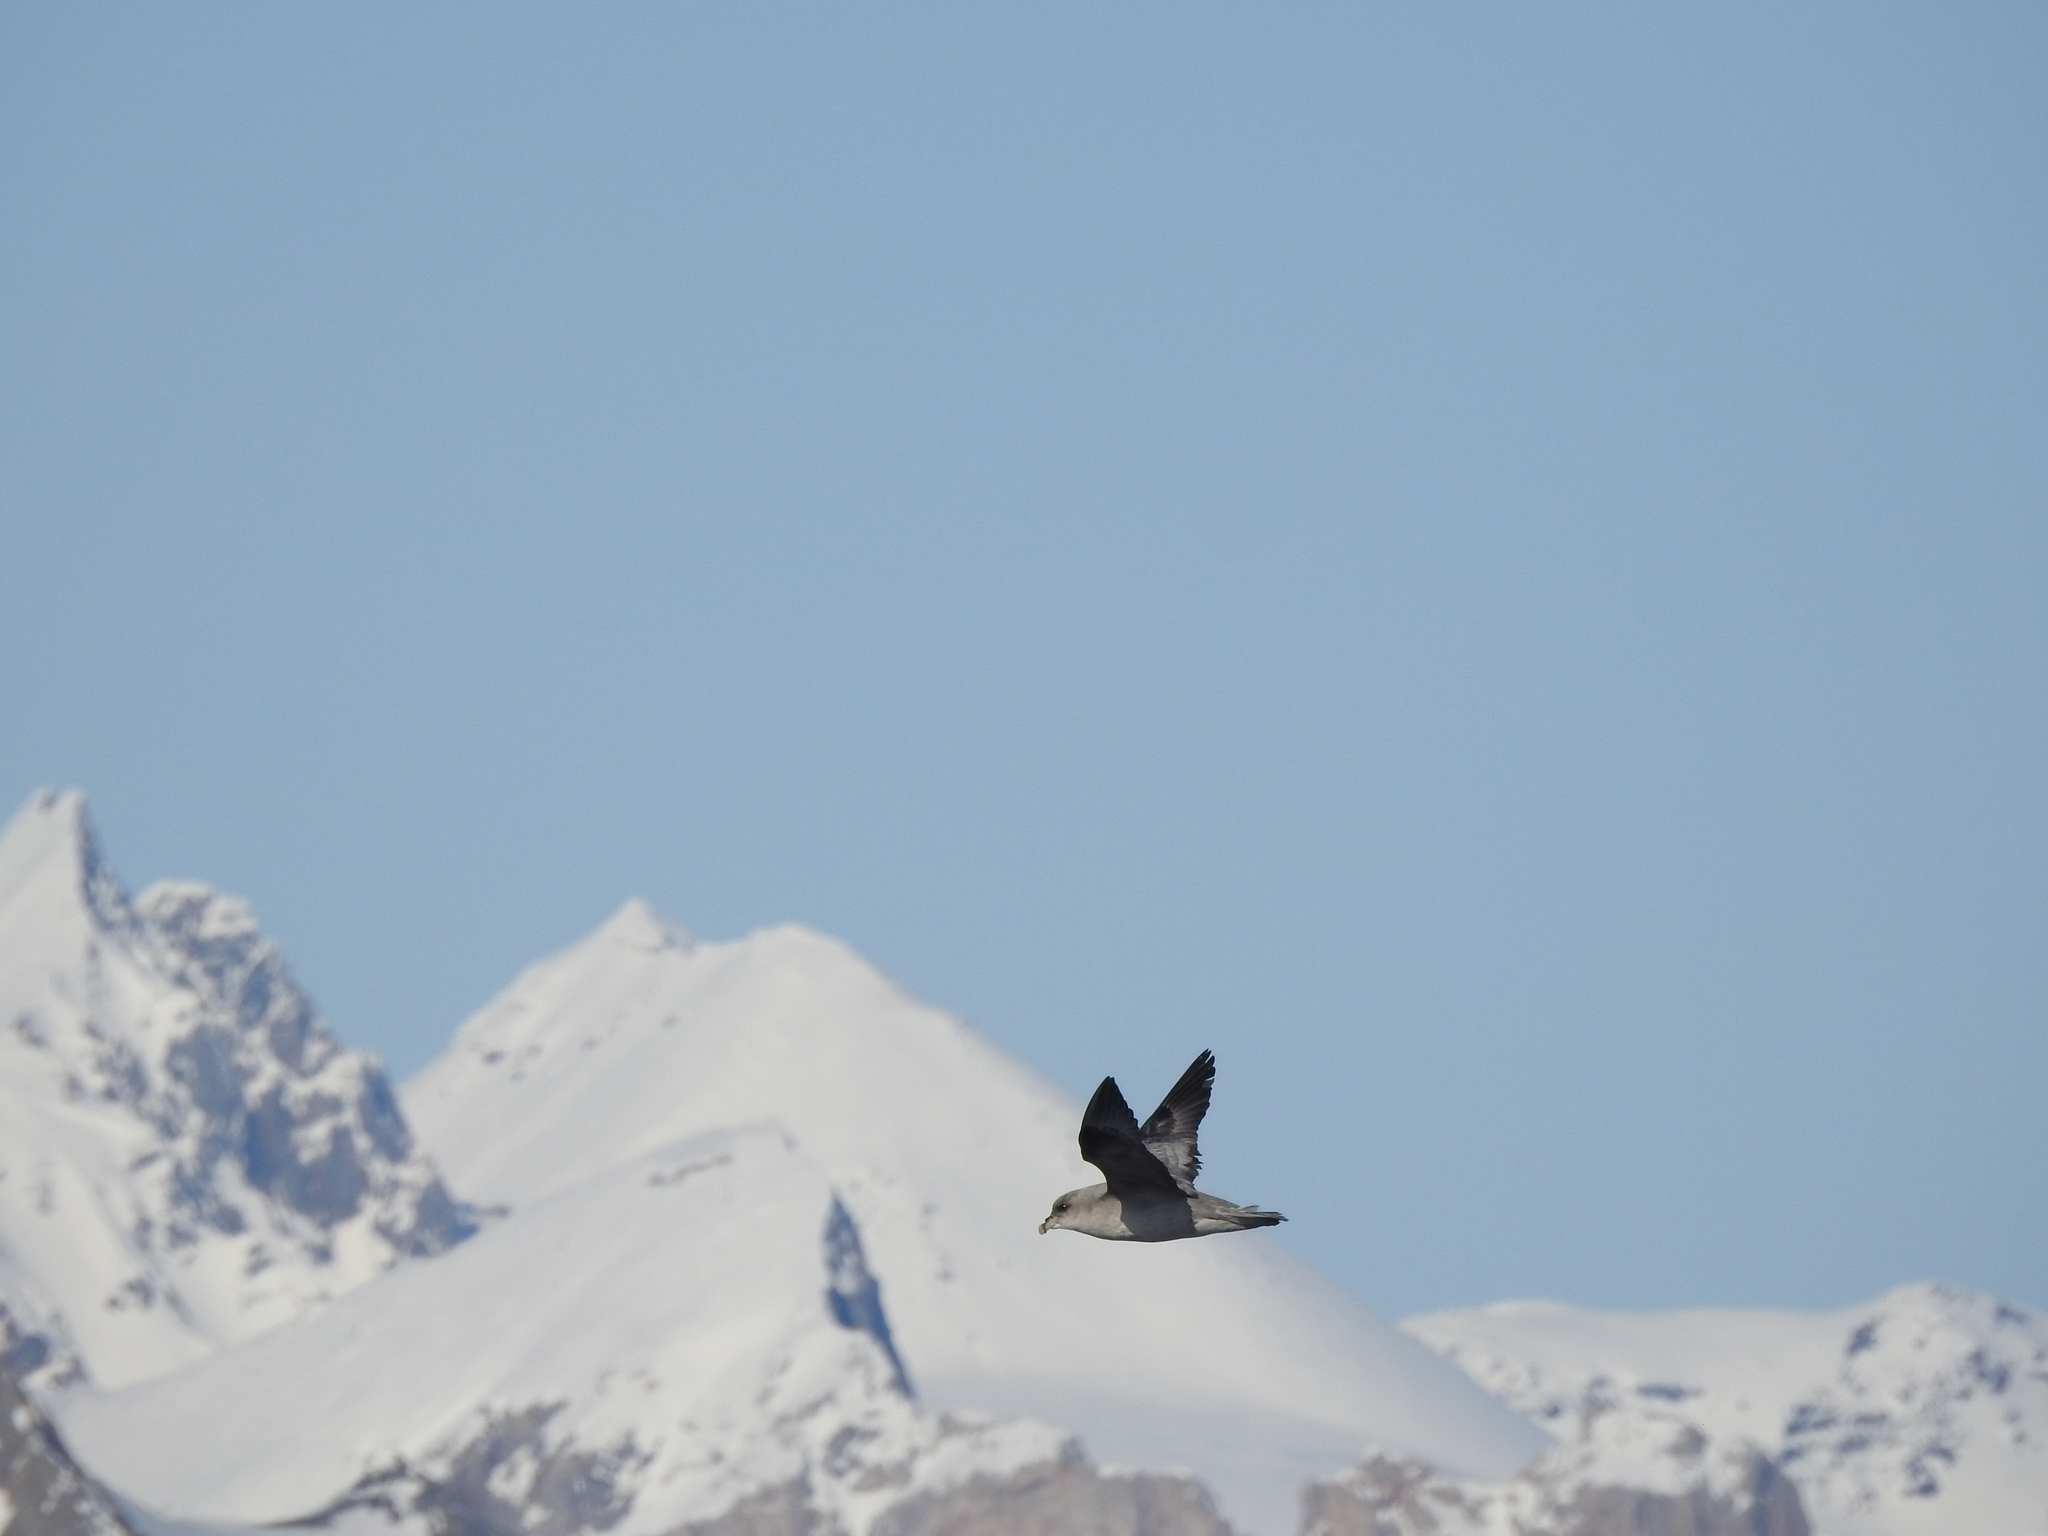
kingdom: Animalia
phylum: Chordata
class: Aves
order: Procellariiformes
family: Procellariidae
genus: Fulmarus
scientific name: Fulmarus glacialis
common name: Northern fulmar
